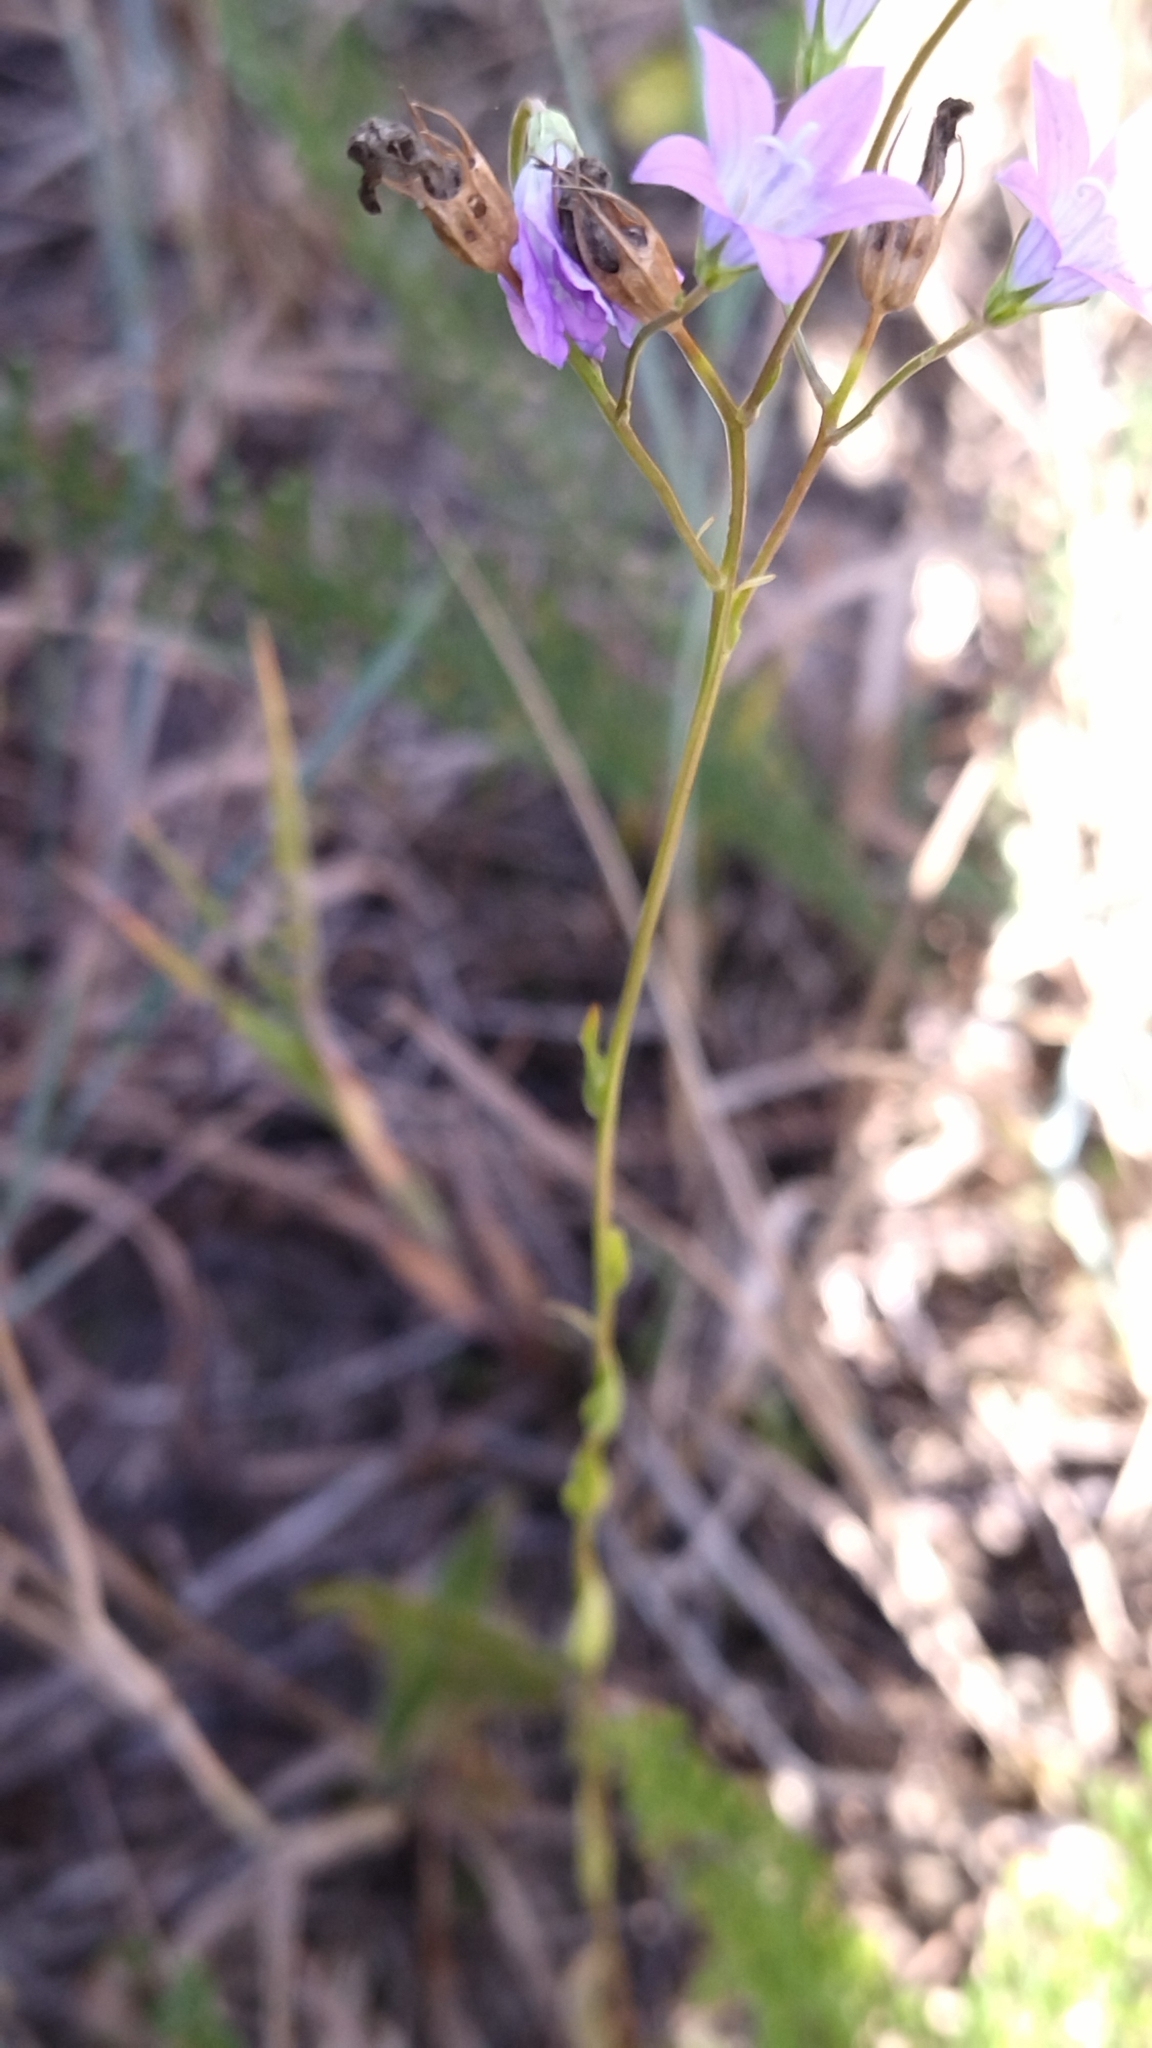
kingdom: Plantae
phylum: Tracheophyta
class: Magnoliopsida
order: Asterales
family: Campanulaceae
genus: Campanula
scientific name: Campanula patula
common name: Spreading bellflower
